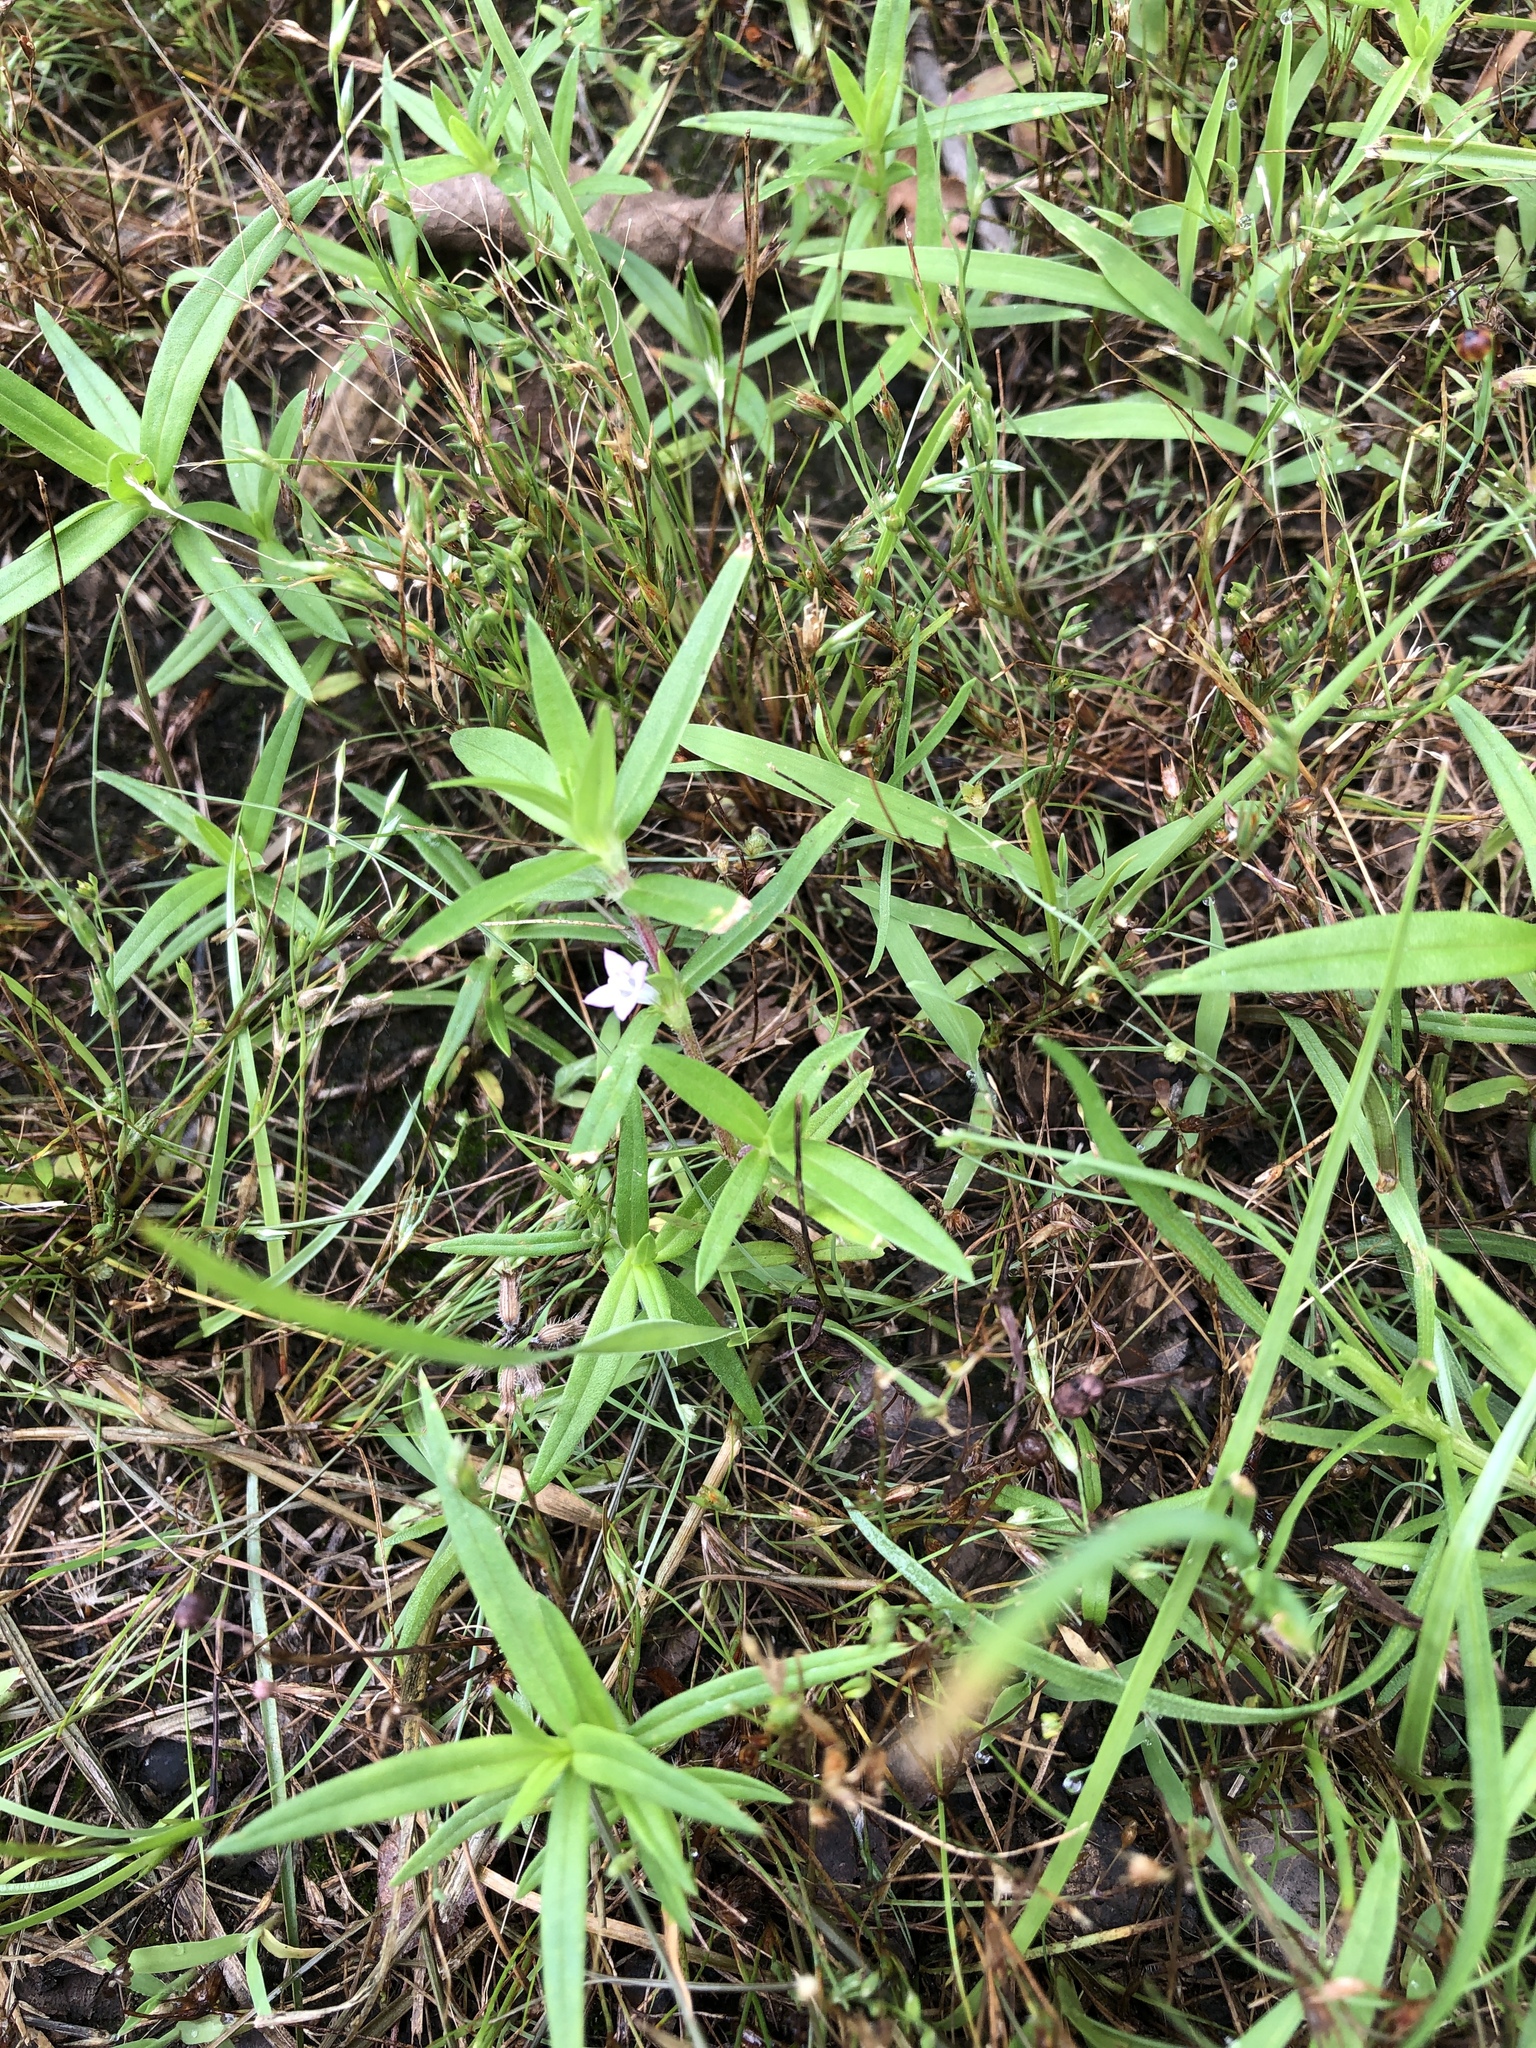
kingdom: Plantae
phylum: Tracheophyta
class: Magnoliopsida
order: Gentianales
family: Rubiaceae
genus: Hexasepalum
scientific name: Hexasepalum teres
